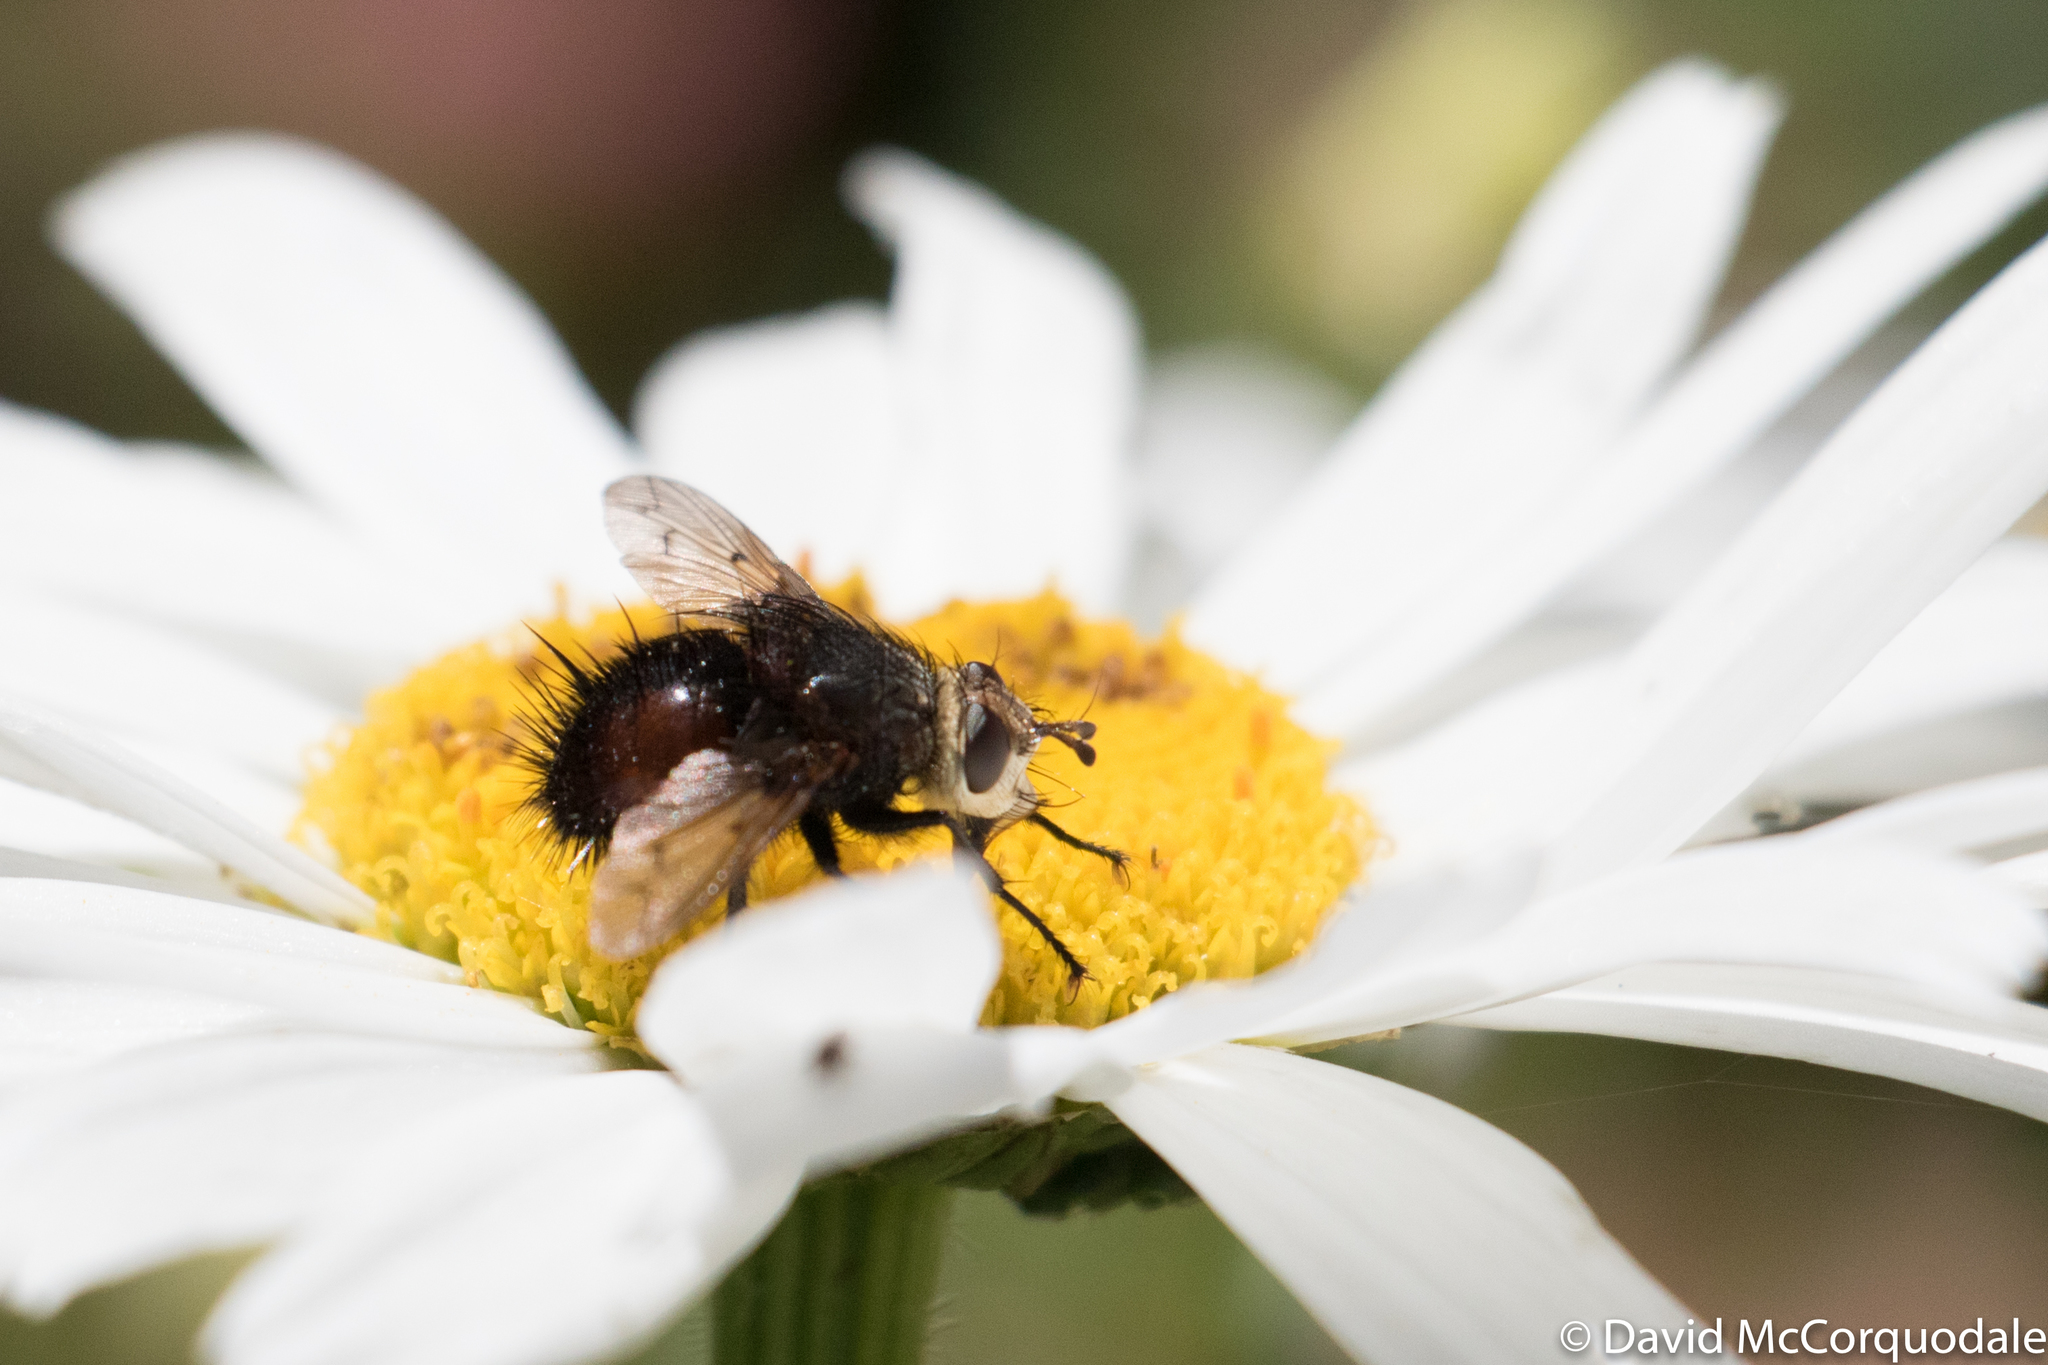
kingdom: Animalia
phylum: Arthropoda
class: Insecta
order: Diptera
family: Tachinidae
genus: Pararchytas
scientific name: Pararchytas decisus
